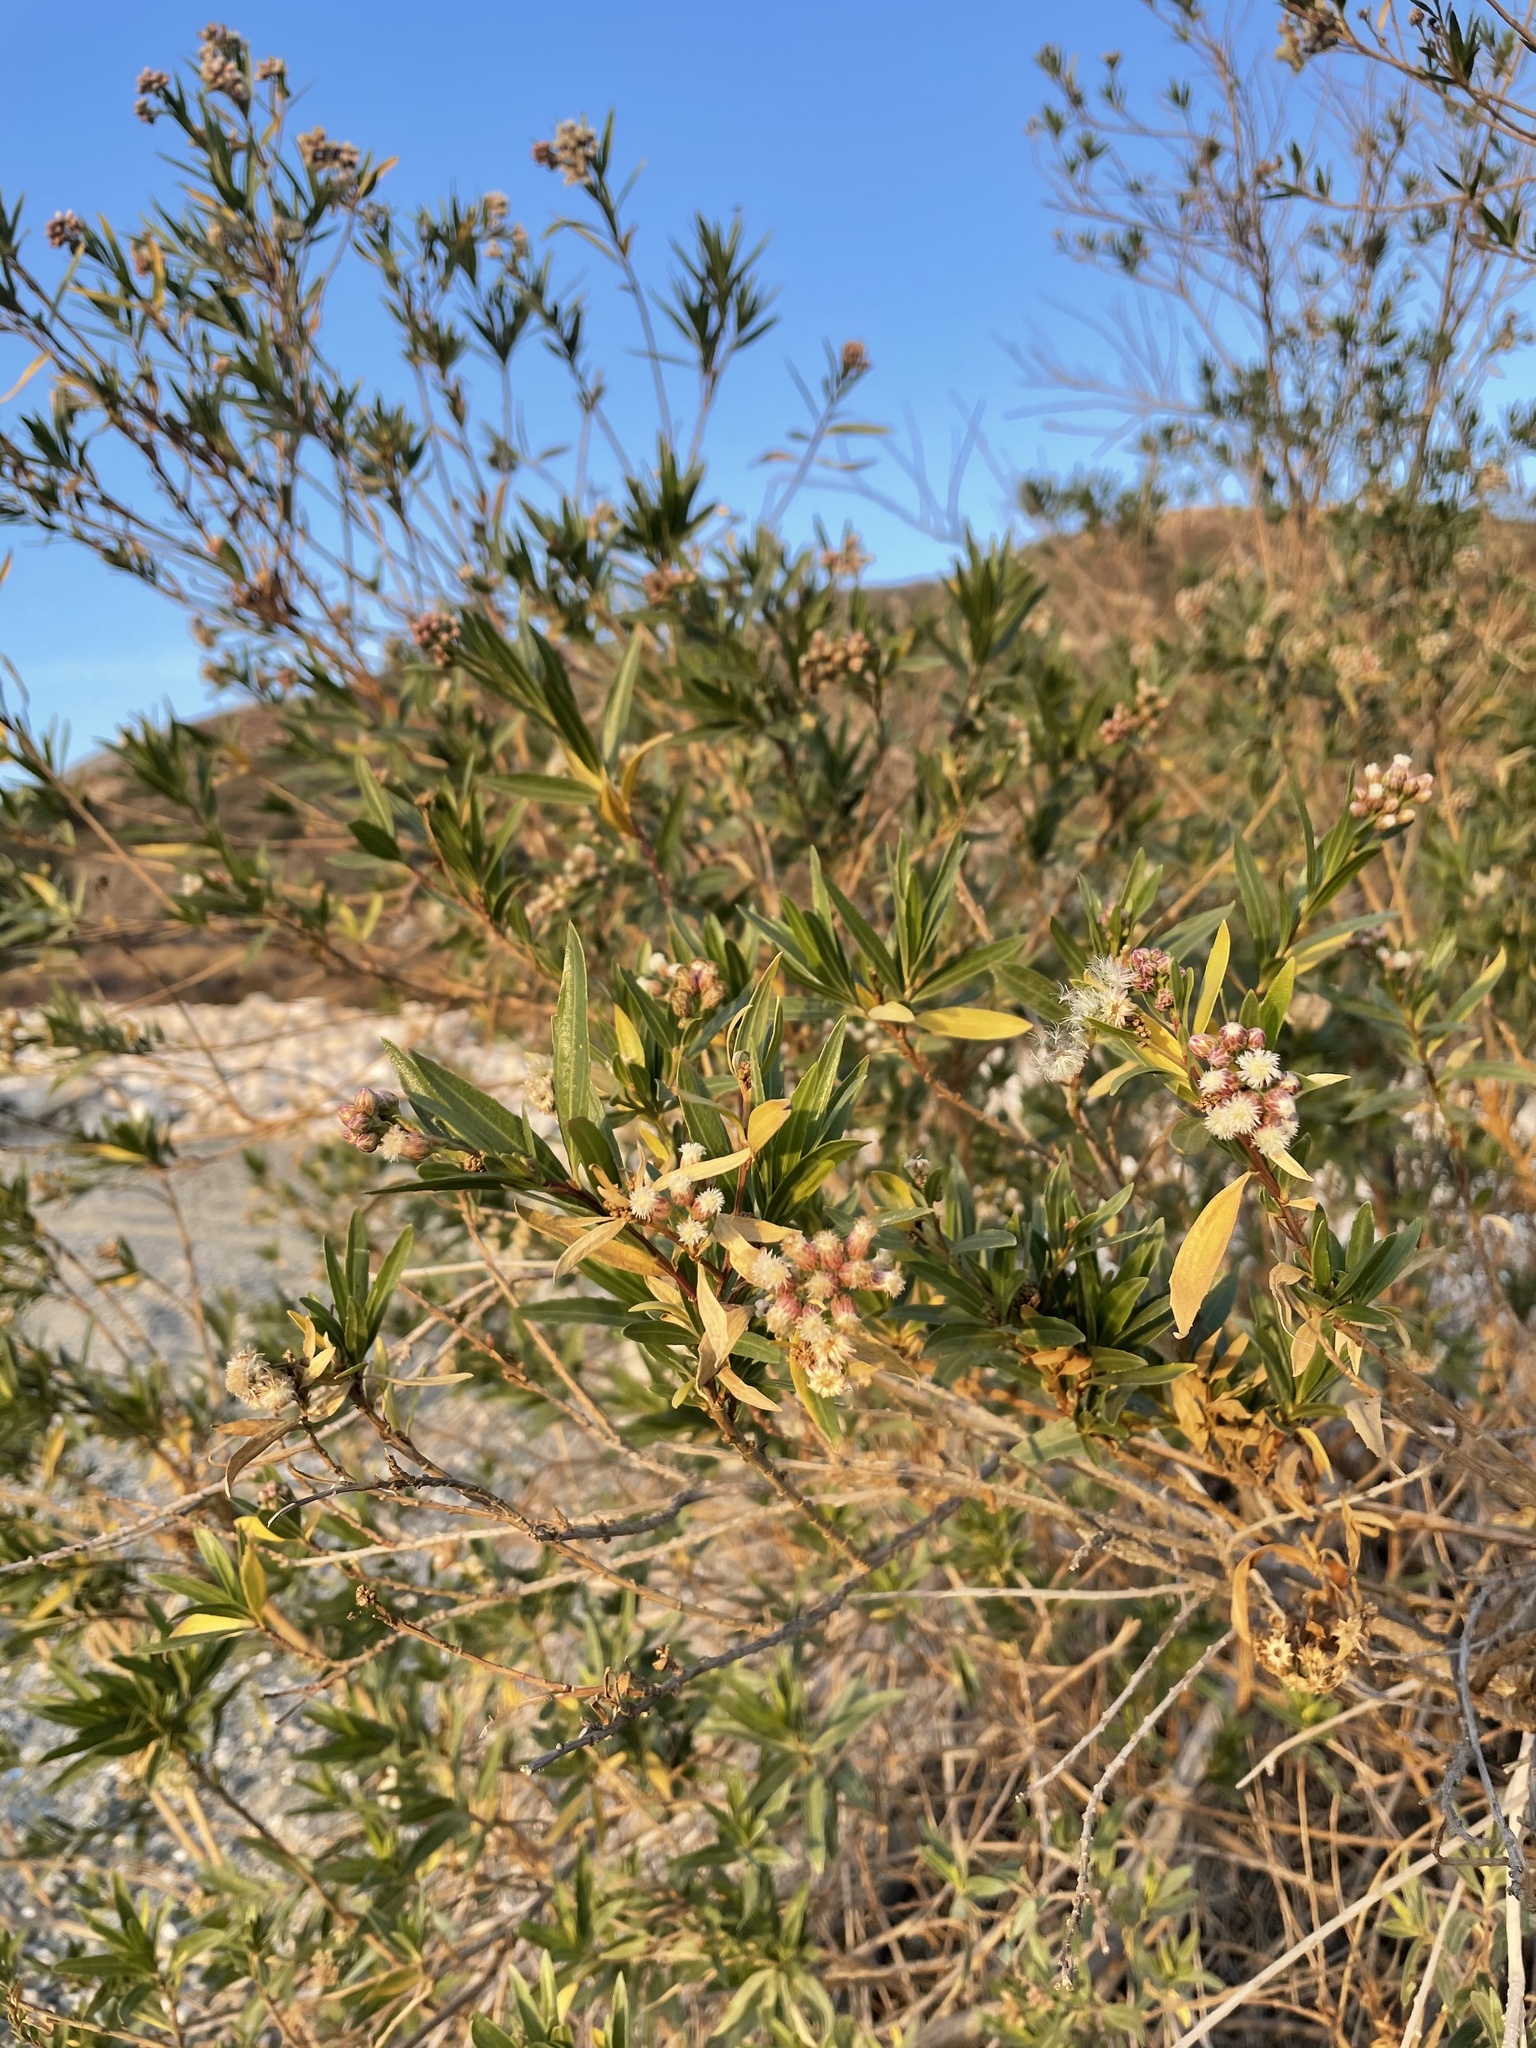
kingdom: Plantae
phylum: Tracheophyta
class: Magnoliopsida
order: Asterales
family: Asteraceae
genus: Baccharis
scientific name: Baccharis salicifolia
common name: Sticky baccharis
